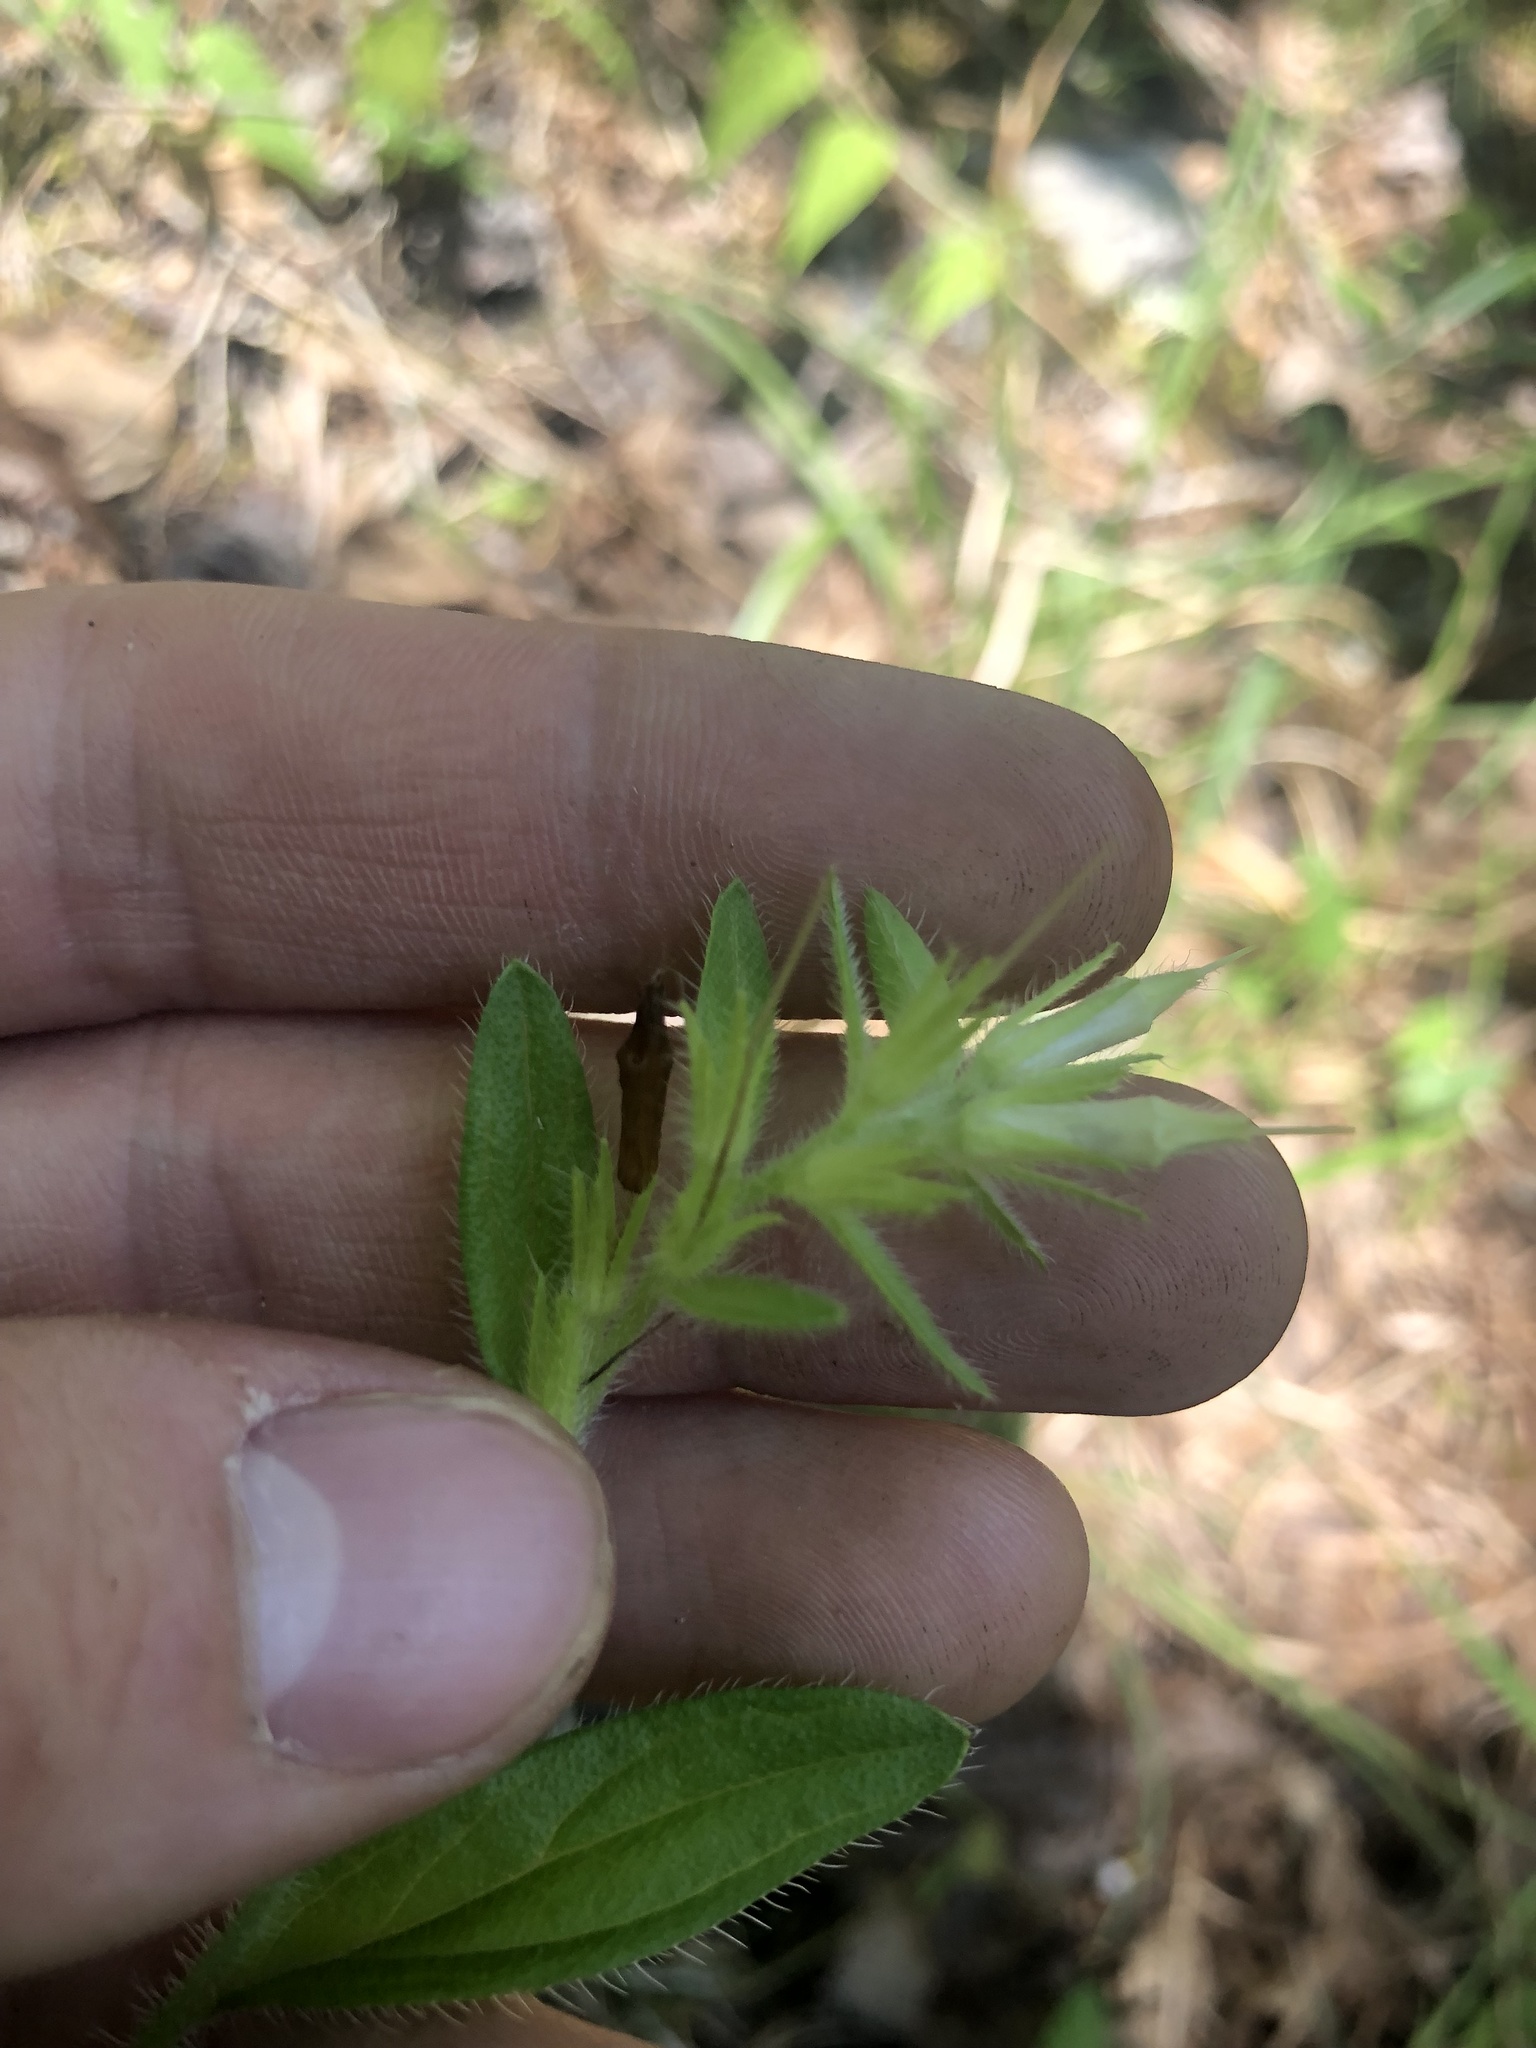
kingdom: Plantae
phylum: Tracheophyta
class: Magnoliopsida
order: Boraginales
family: Boraginaceae
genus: Lithospermum
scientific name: Lithospermum virginianum
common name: Eastern false gromwell
